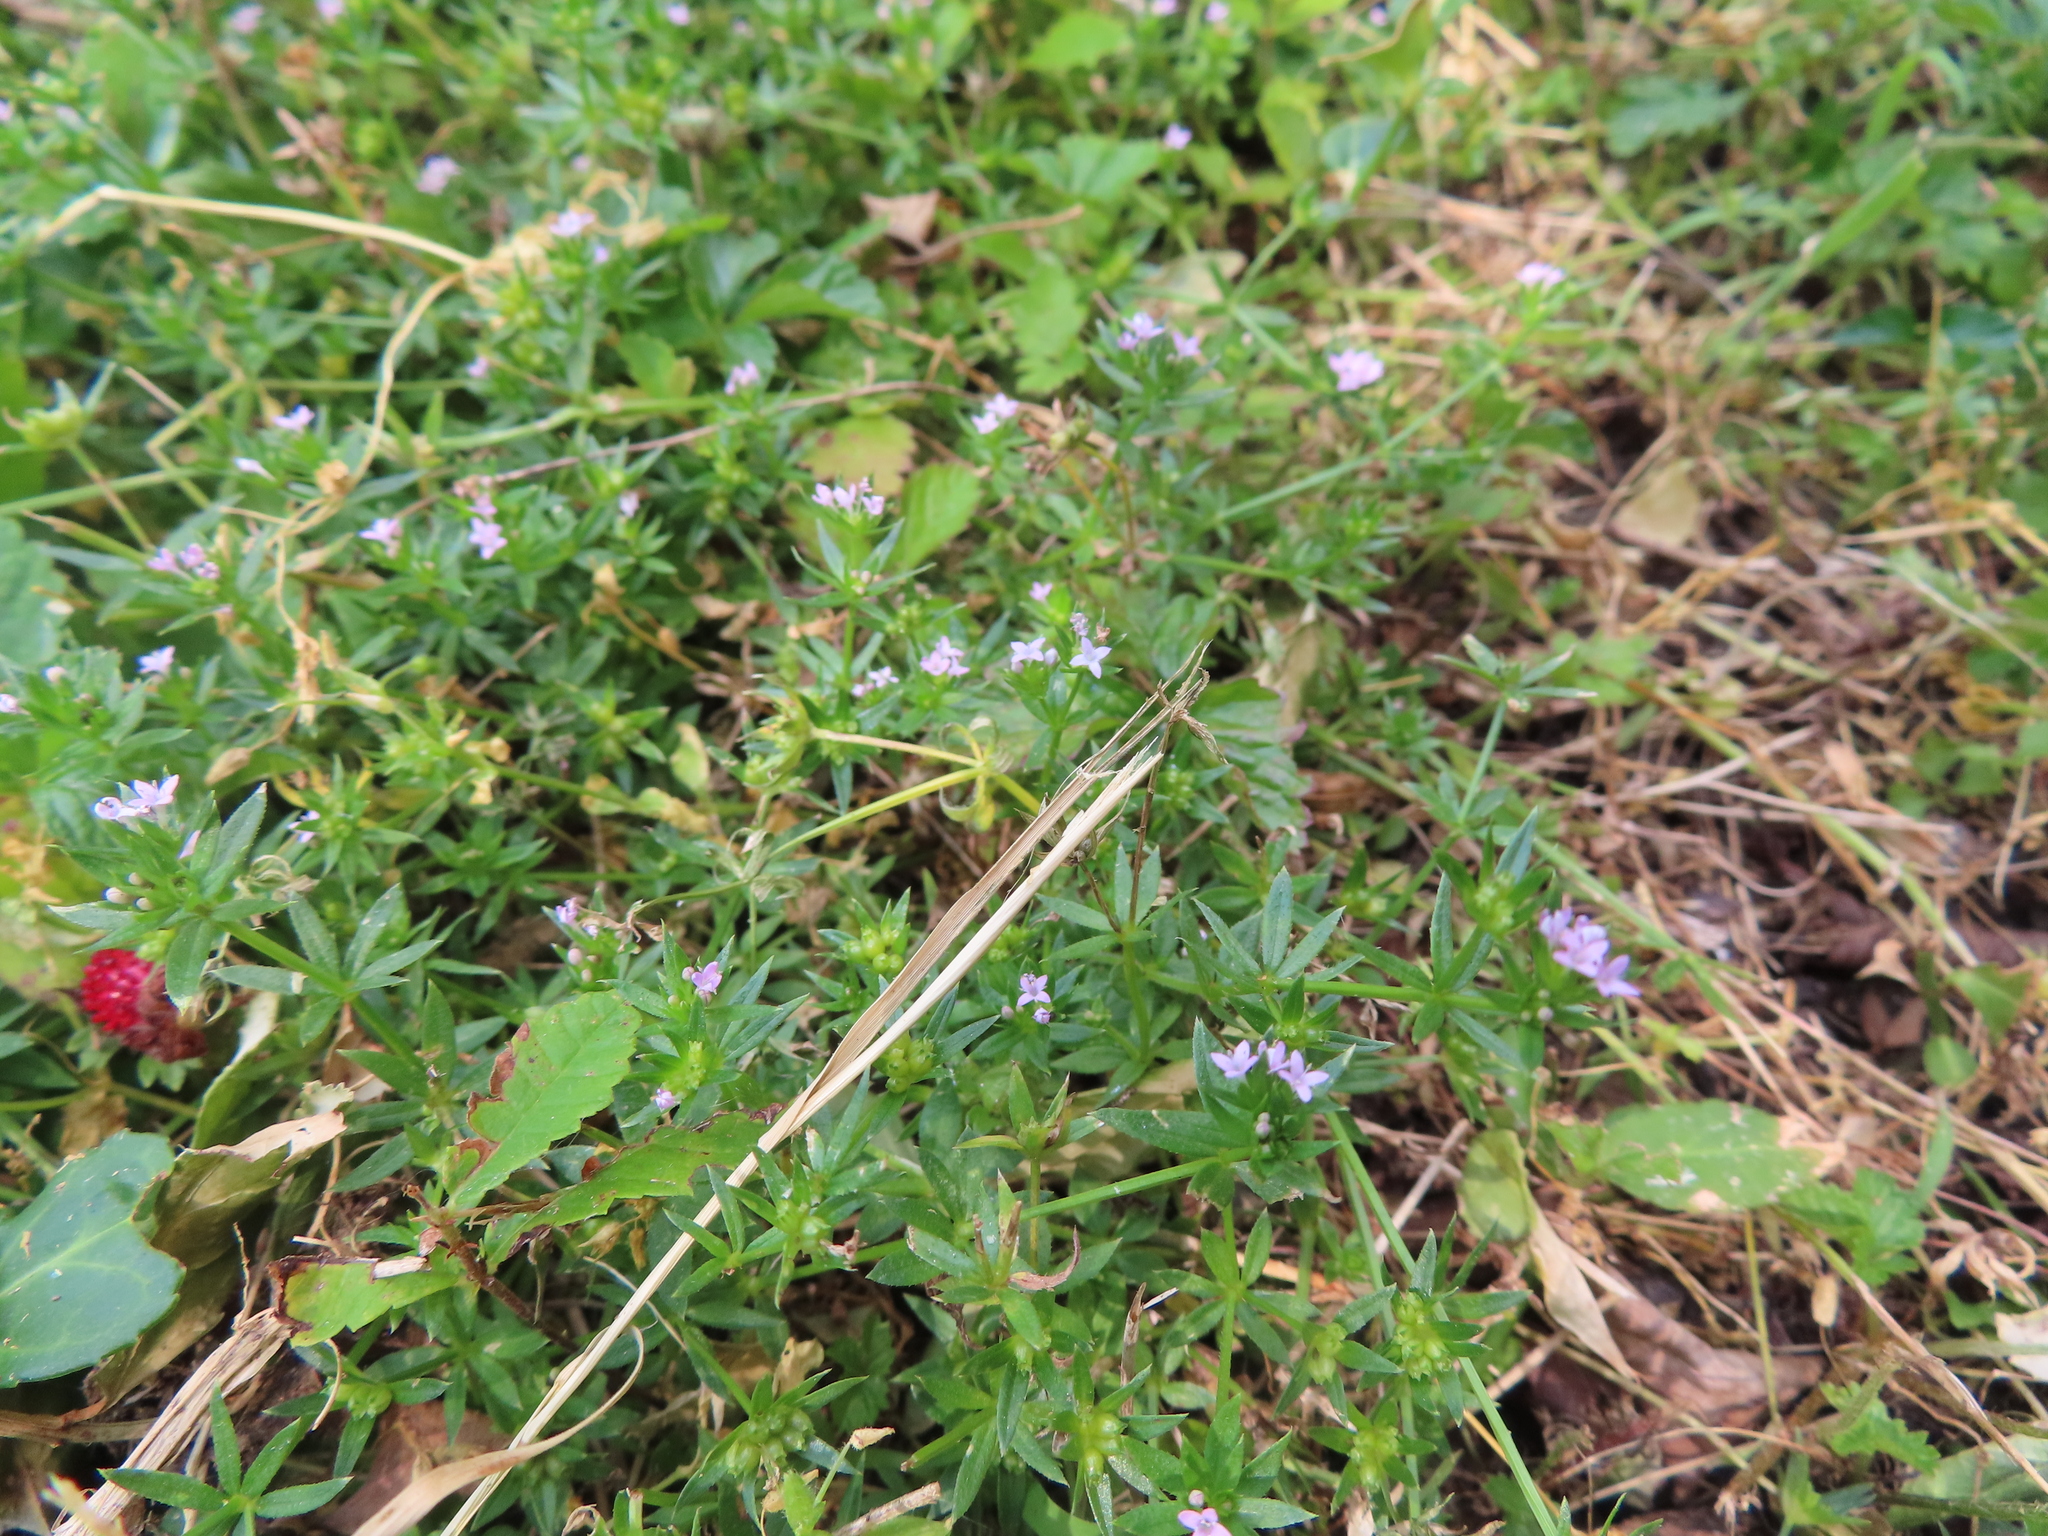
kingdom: Plantae
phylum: Tracheophyta
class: Magnoliopsida
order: Gentianales
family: Rubiaceae
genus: Sherardia
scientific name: Sherardia arvensis
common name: Field madder
